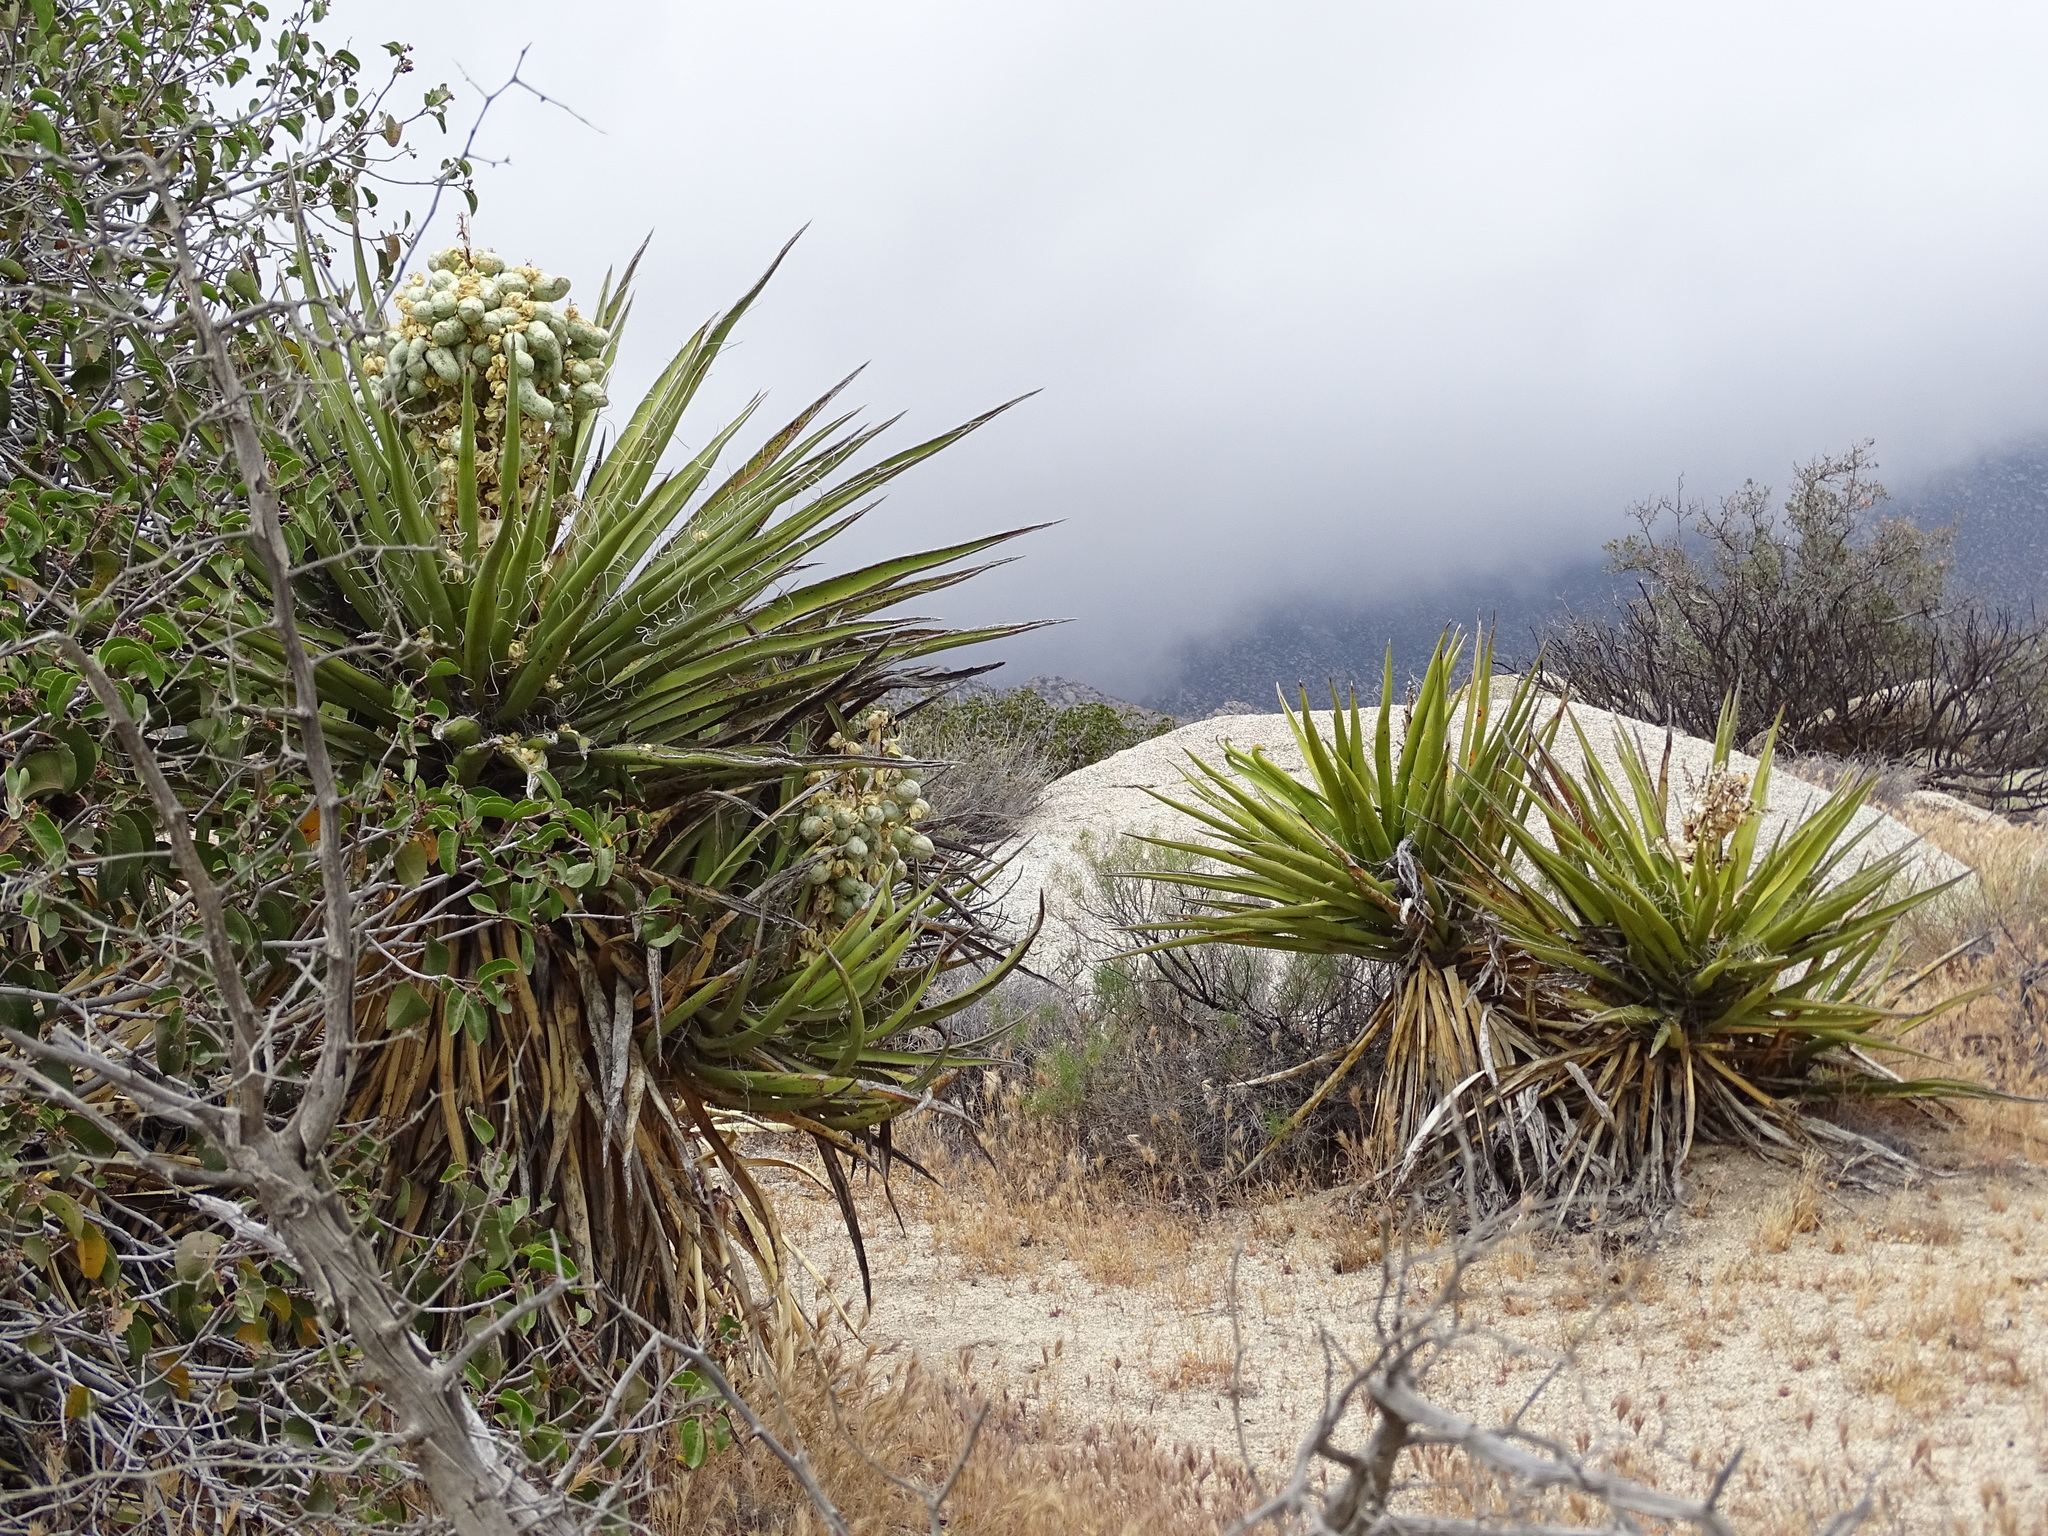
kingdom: Plantae
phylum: Tracheophyta
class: Liliopsida
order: Asparagales
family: Asparagaceae
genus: Yucca
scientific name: Yucca schidigera
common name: Mojave yucca
